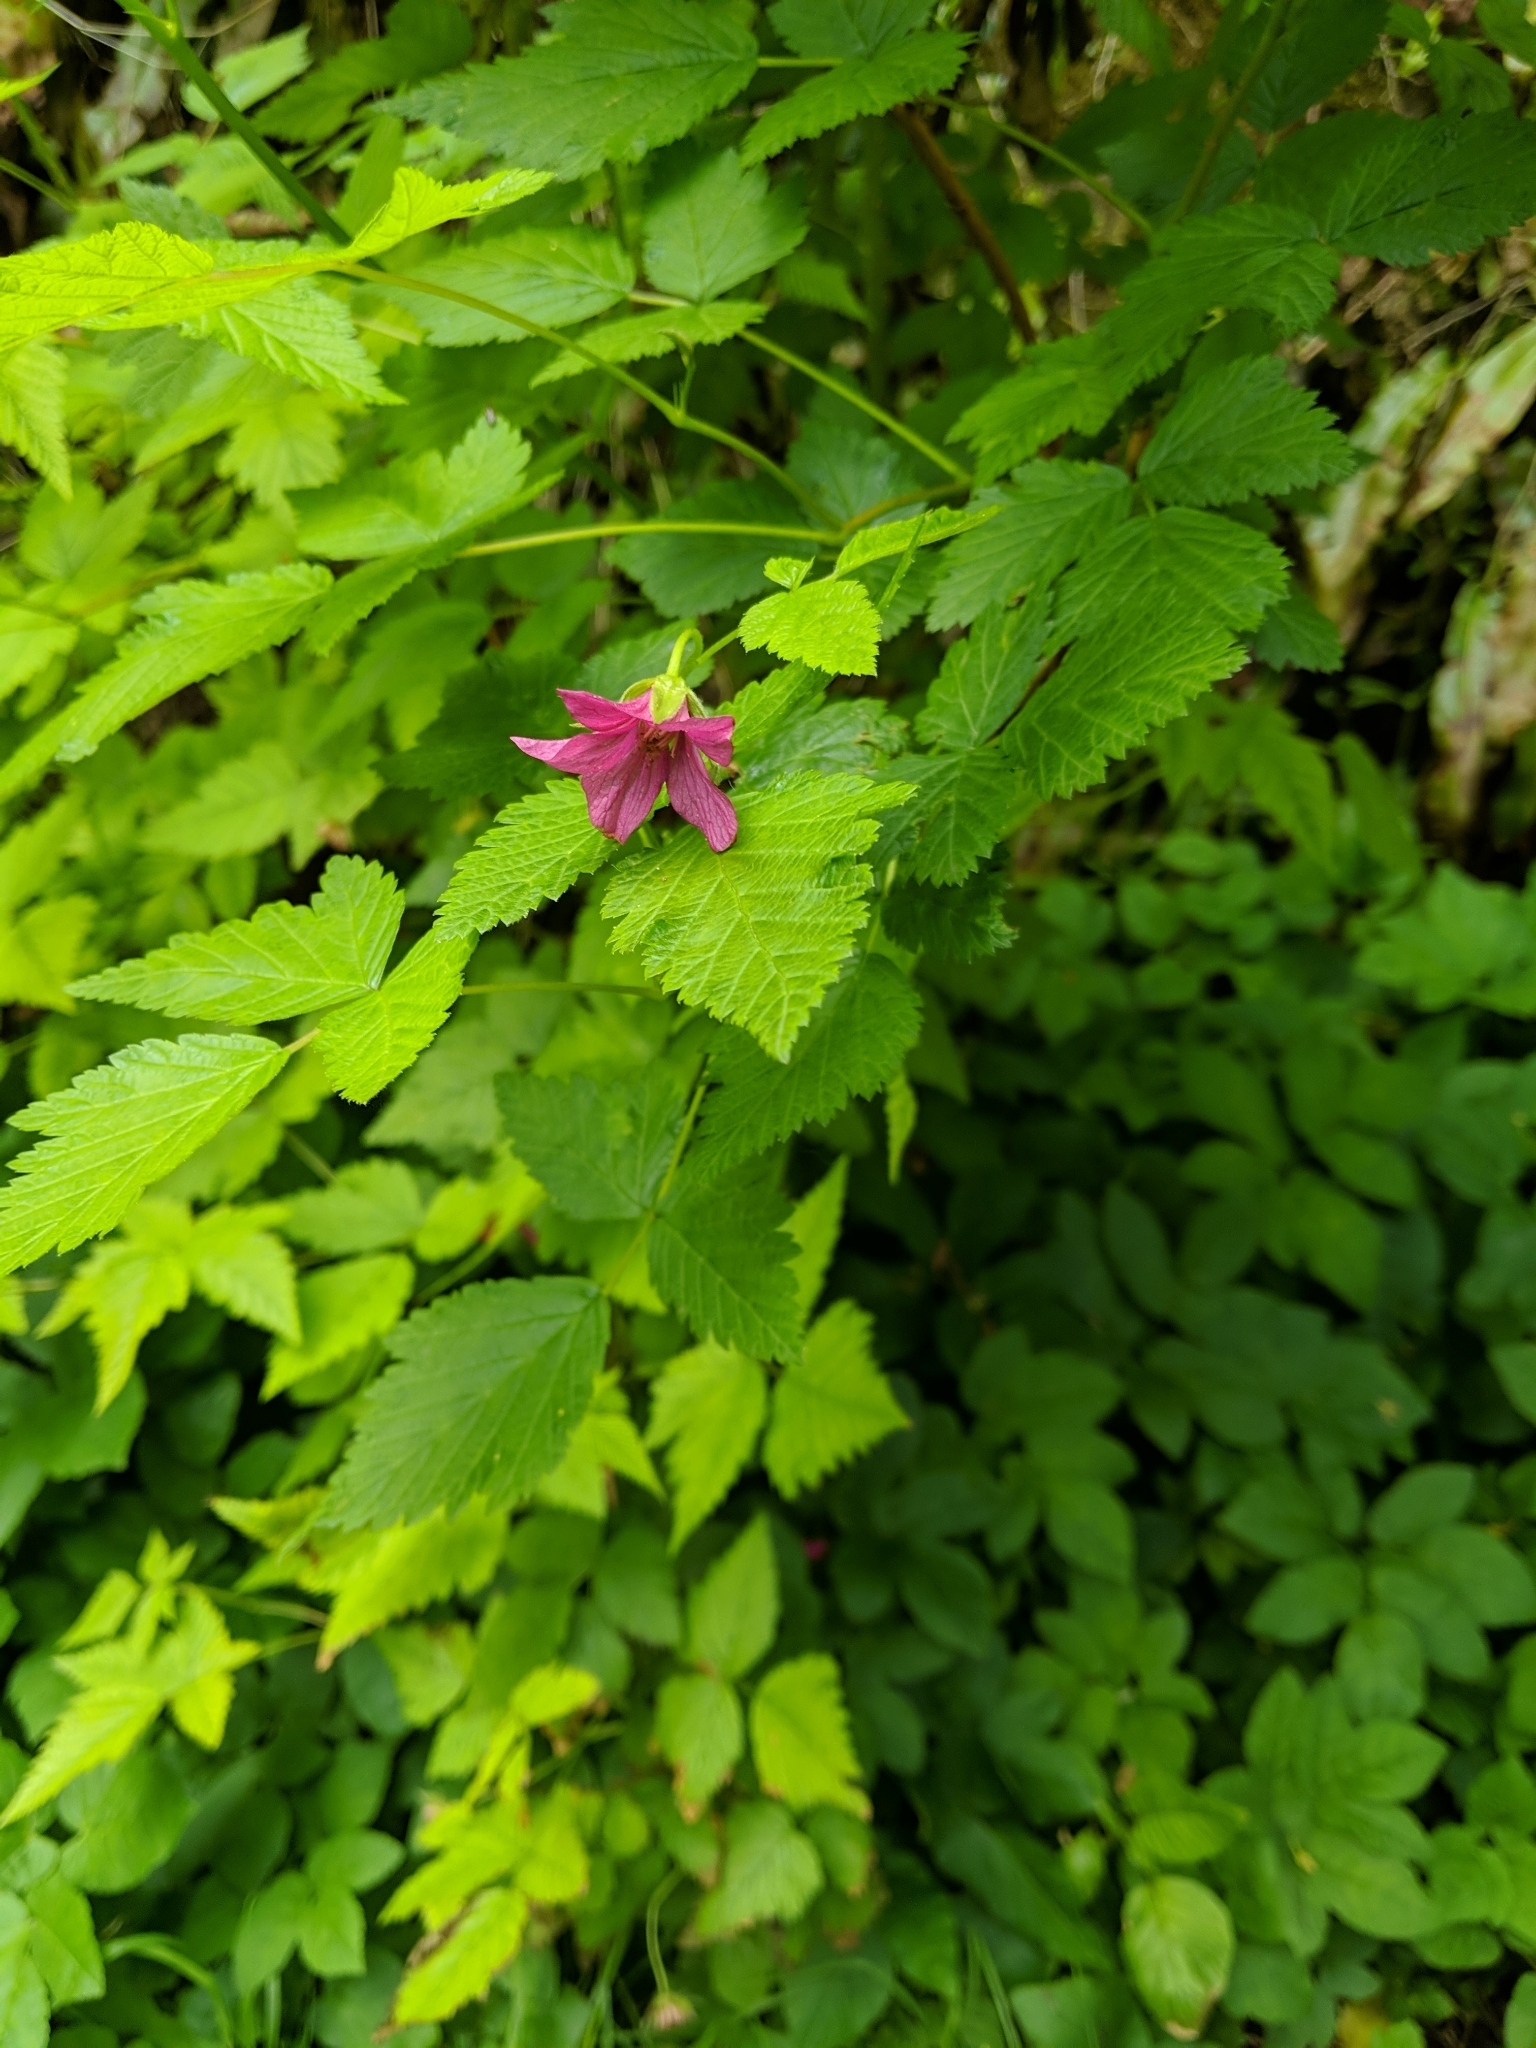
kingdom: Plantae
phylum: Tracheophyta
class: Magnoliopsida
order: Rosales
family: Rosaceae
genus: Rubus
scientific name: Rubus spectabilis
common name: Salmonberry
